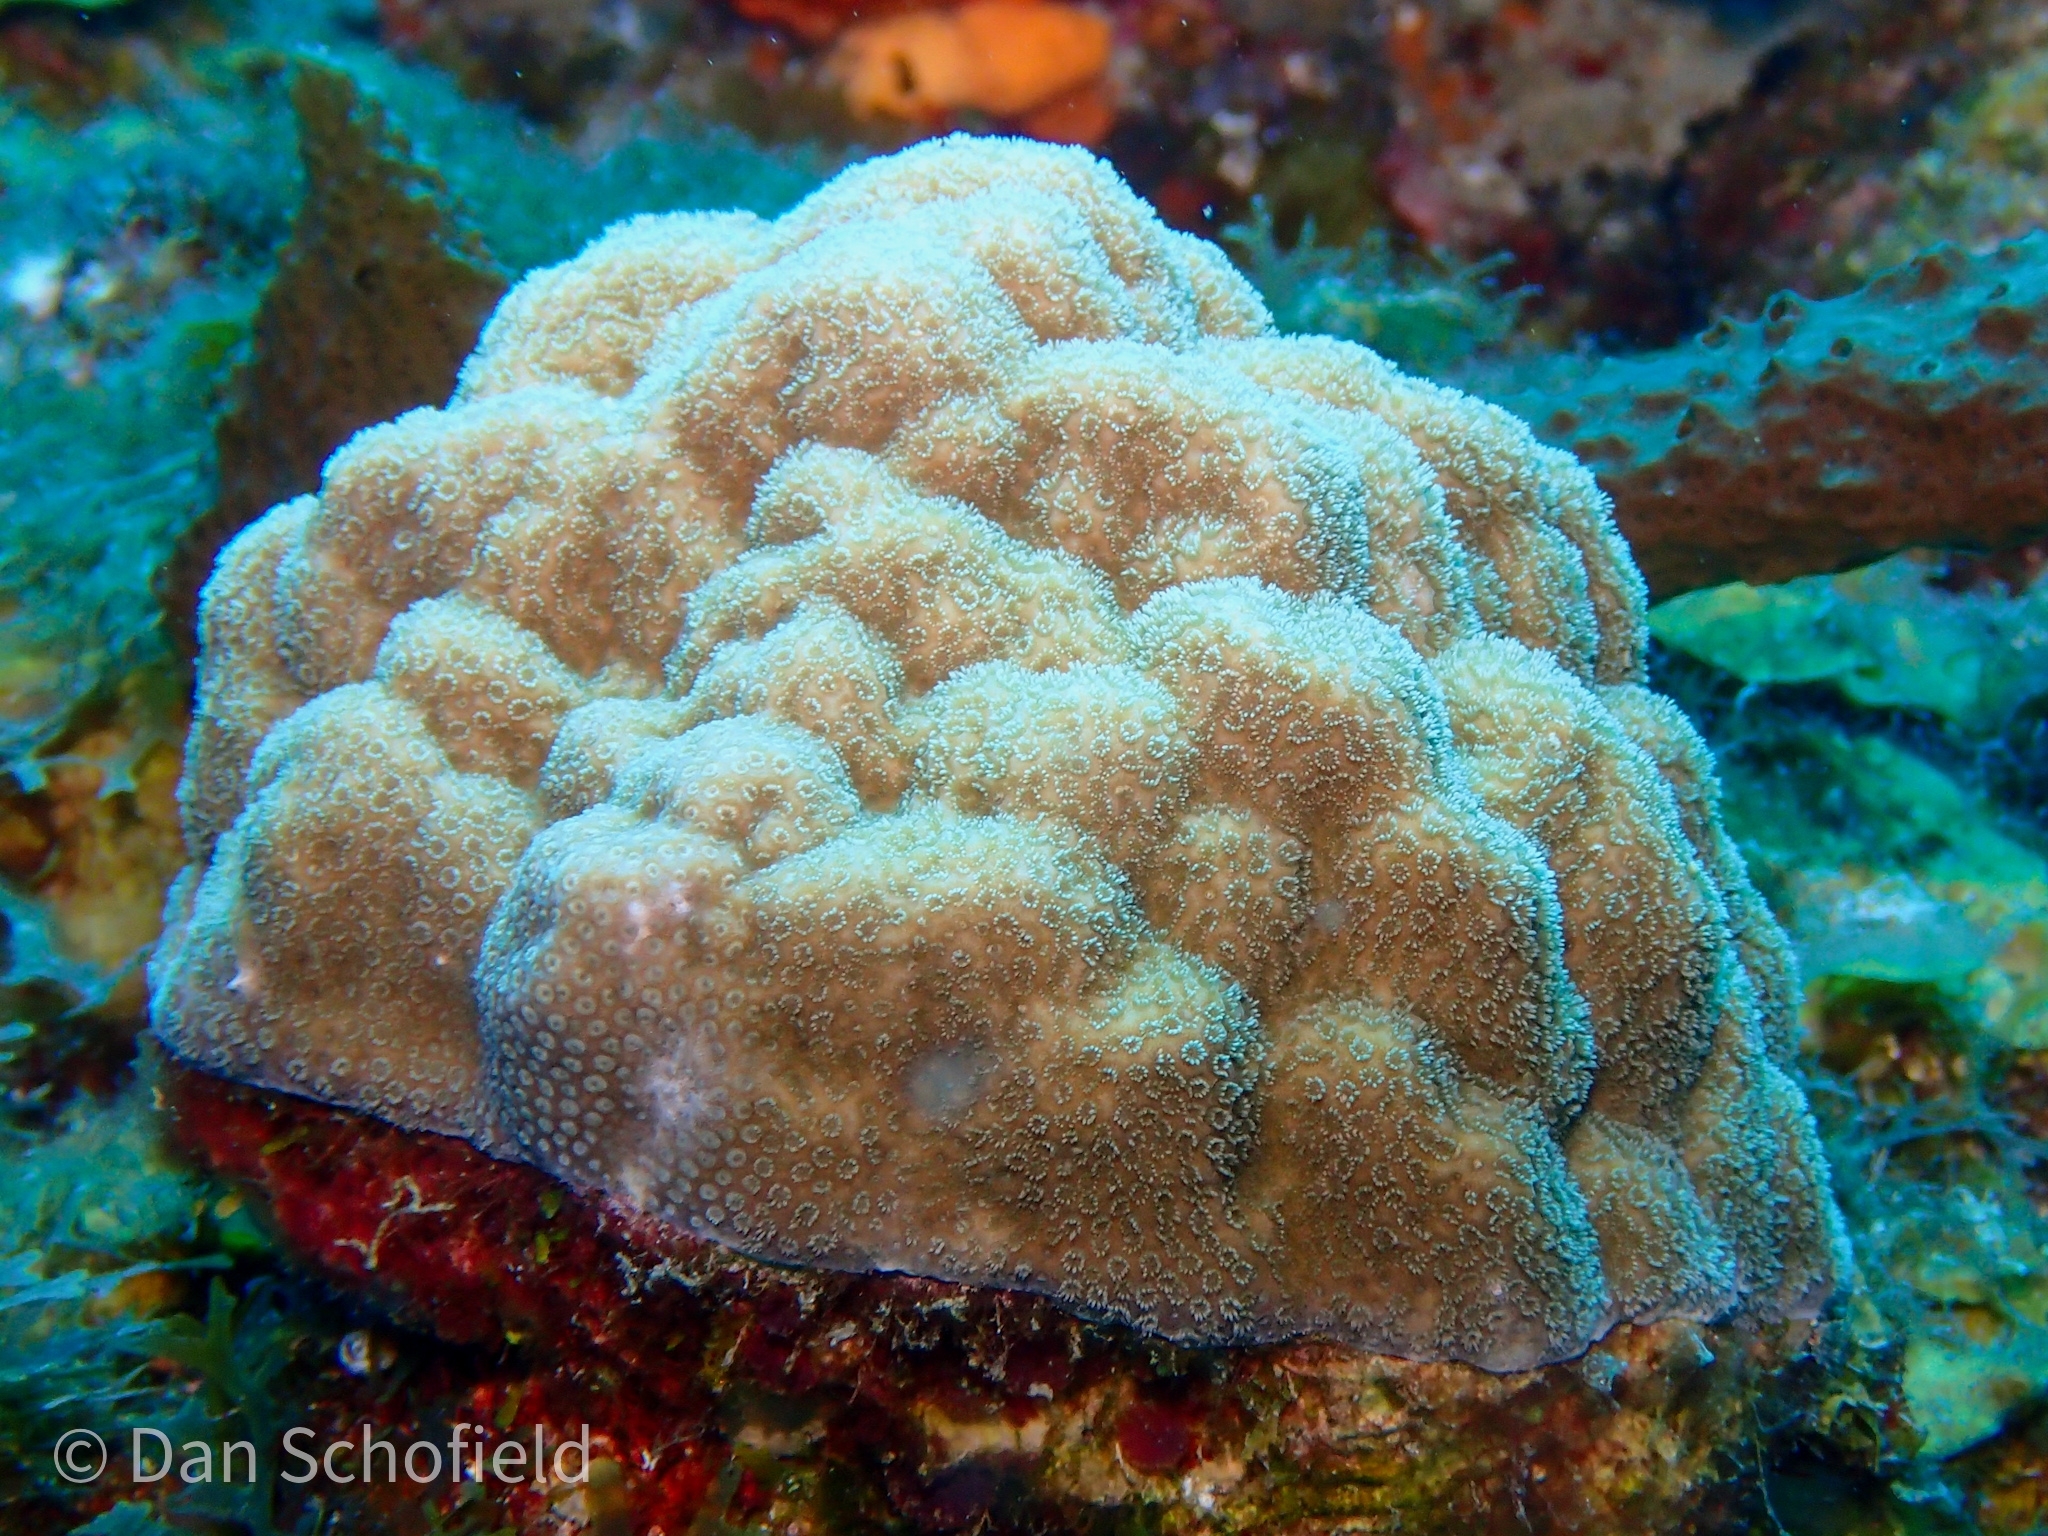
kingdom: Animalia
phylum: Cnidaria
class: Anthozoa
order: Scleractinia
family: Poritidae
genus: Porites
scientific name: Porites astreoides
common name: Mustard hill coral
